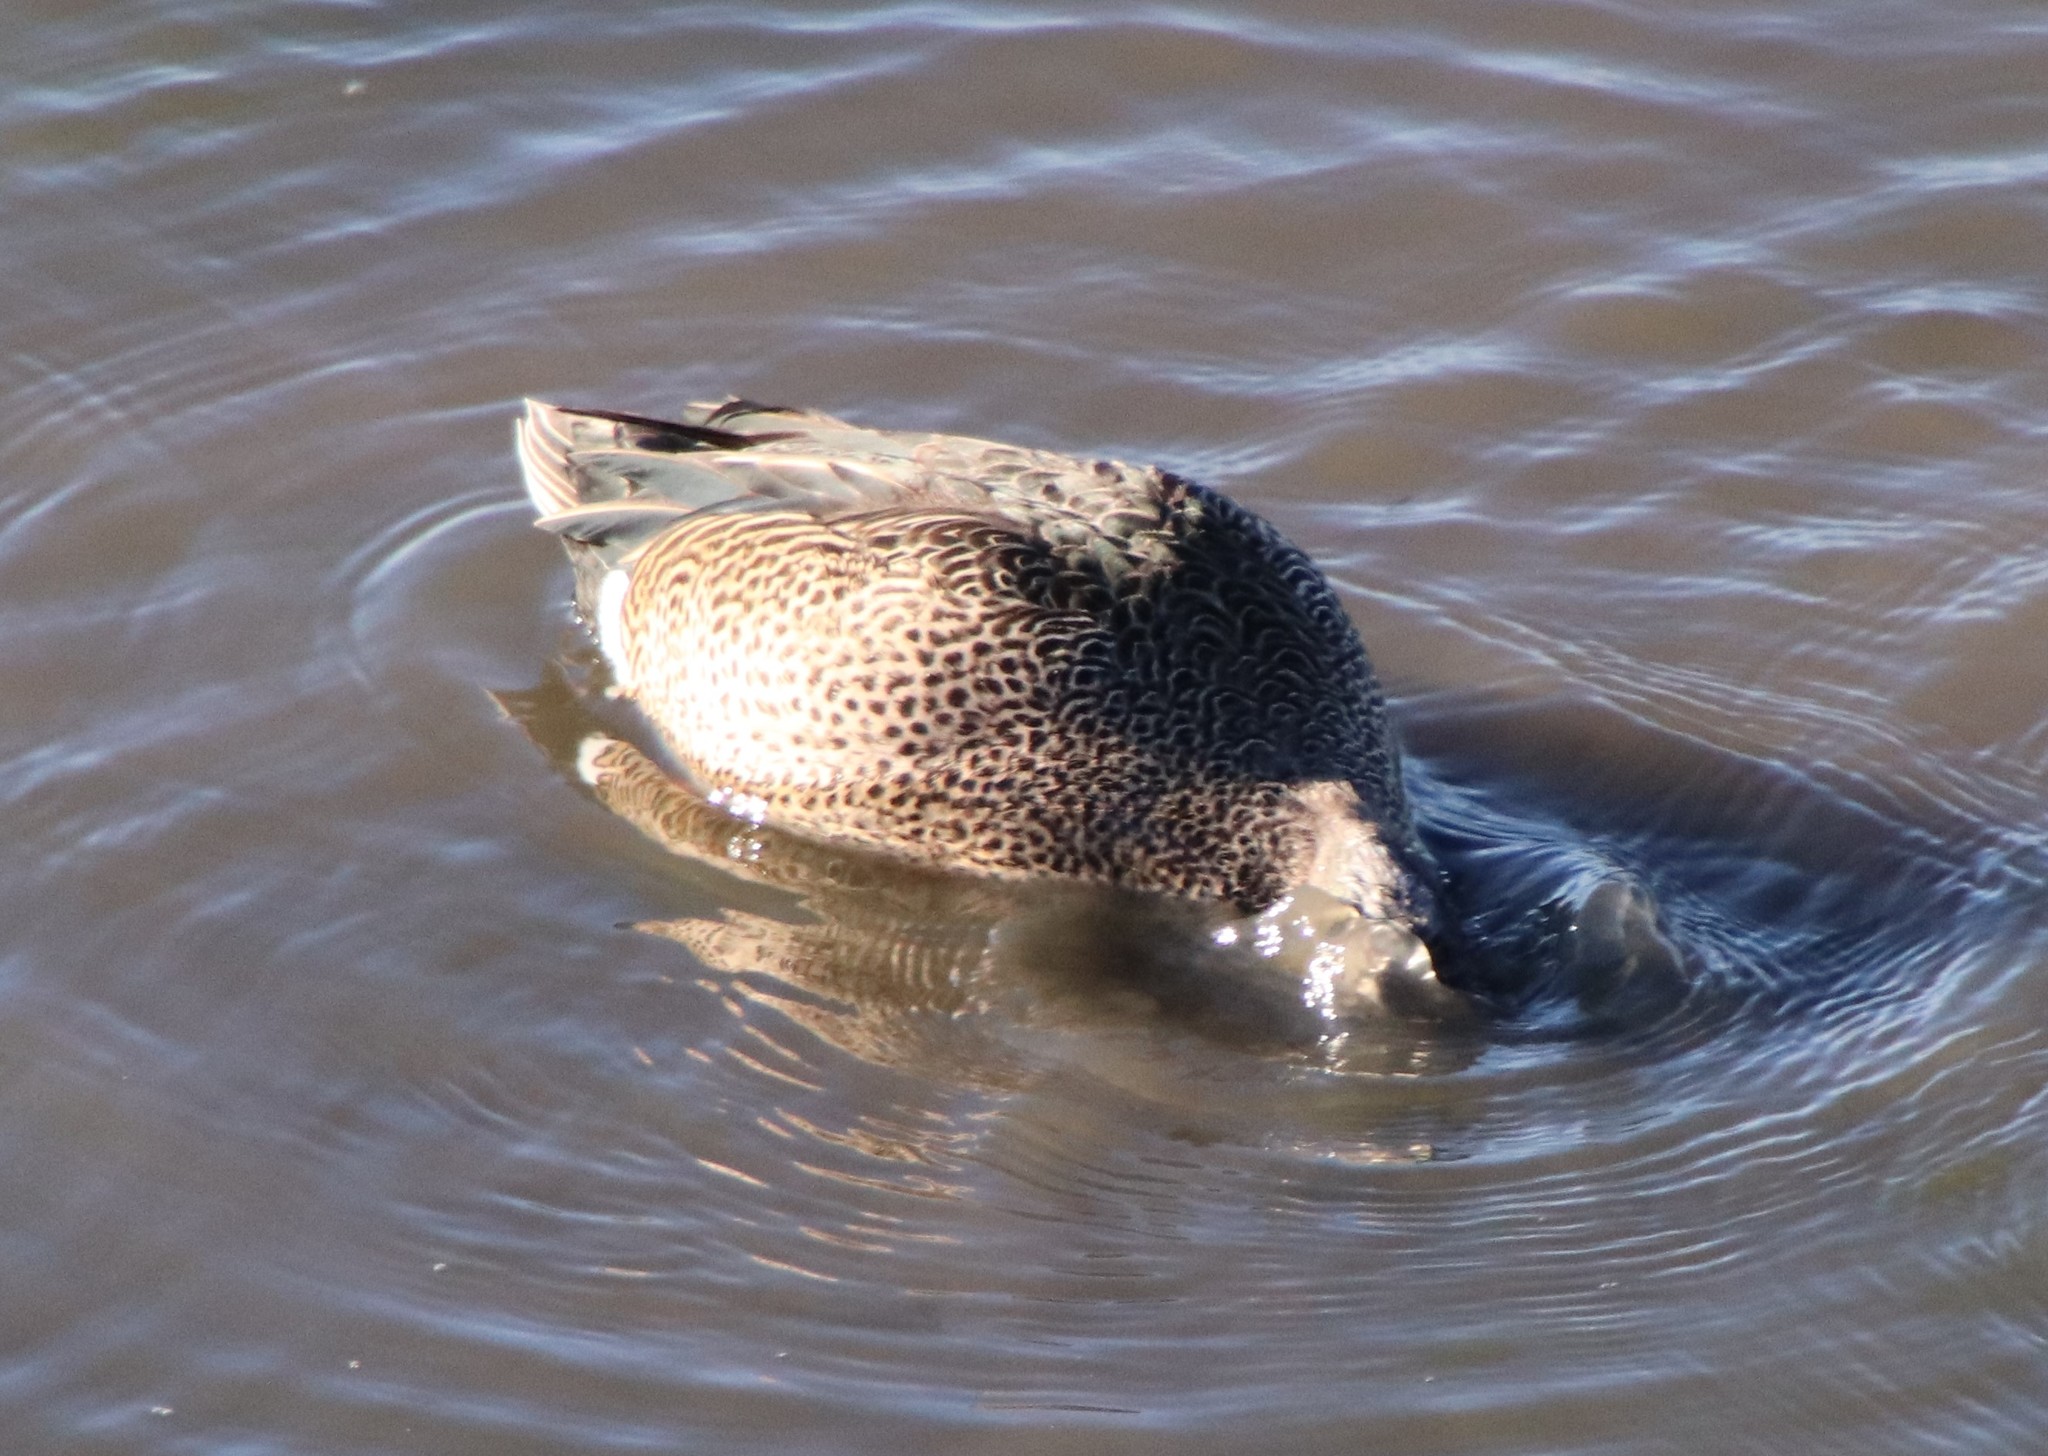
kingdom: Animalia
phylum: Chordata
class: Aves
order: Anseriformes
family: Anatidae
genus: Spatula
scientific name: Spatula discors
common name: Blue-winged teal
